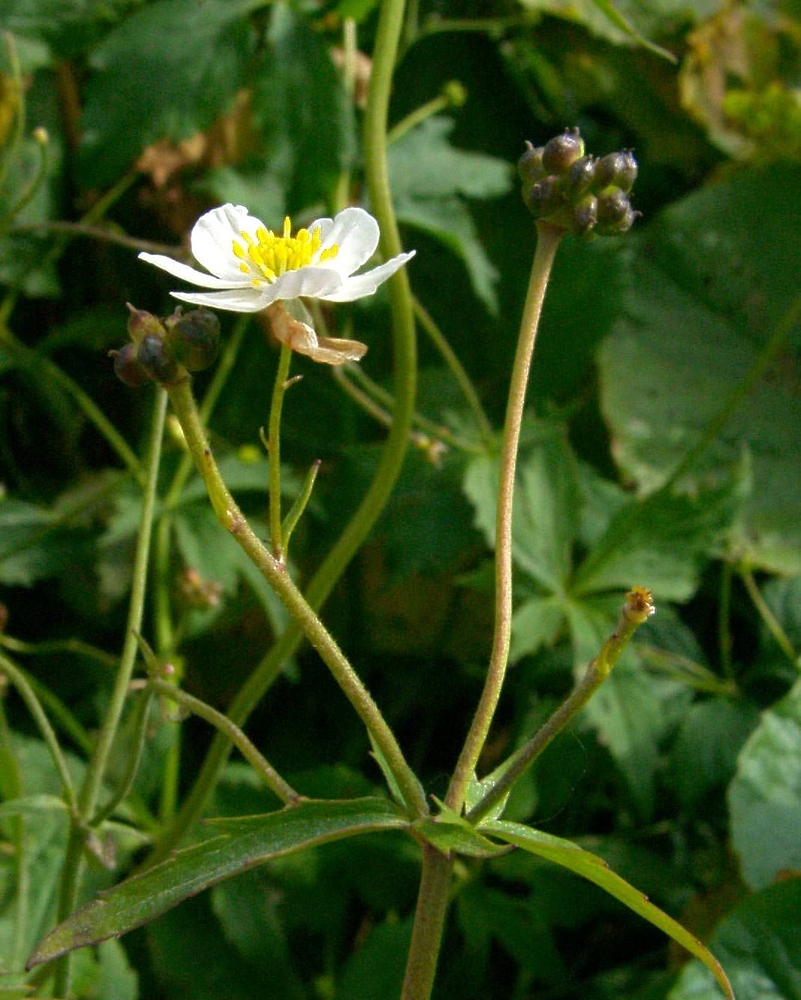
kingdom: Plantae
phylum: Tracheophyta
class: Magnoliopsida
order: Ranunculales
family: Ranunculaceae
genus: Ranunculus
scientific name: Ranunculus aconitifolius
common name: Aconite-leaved buttercup
